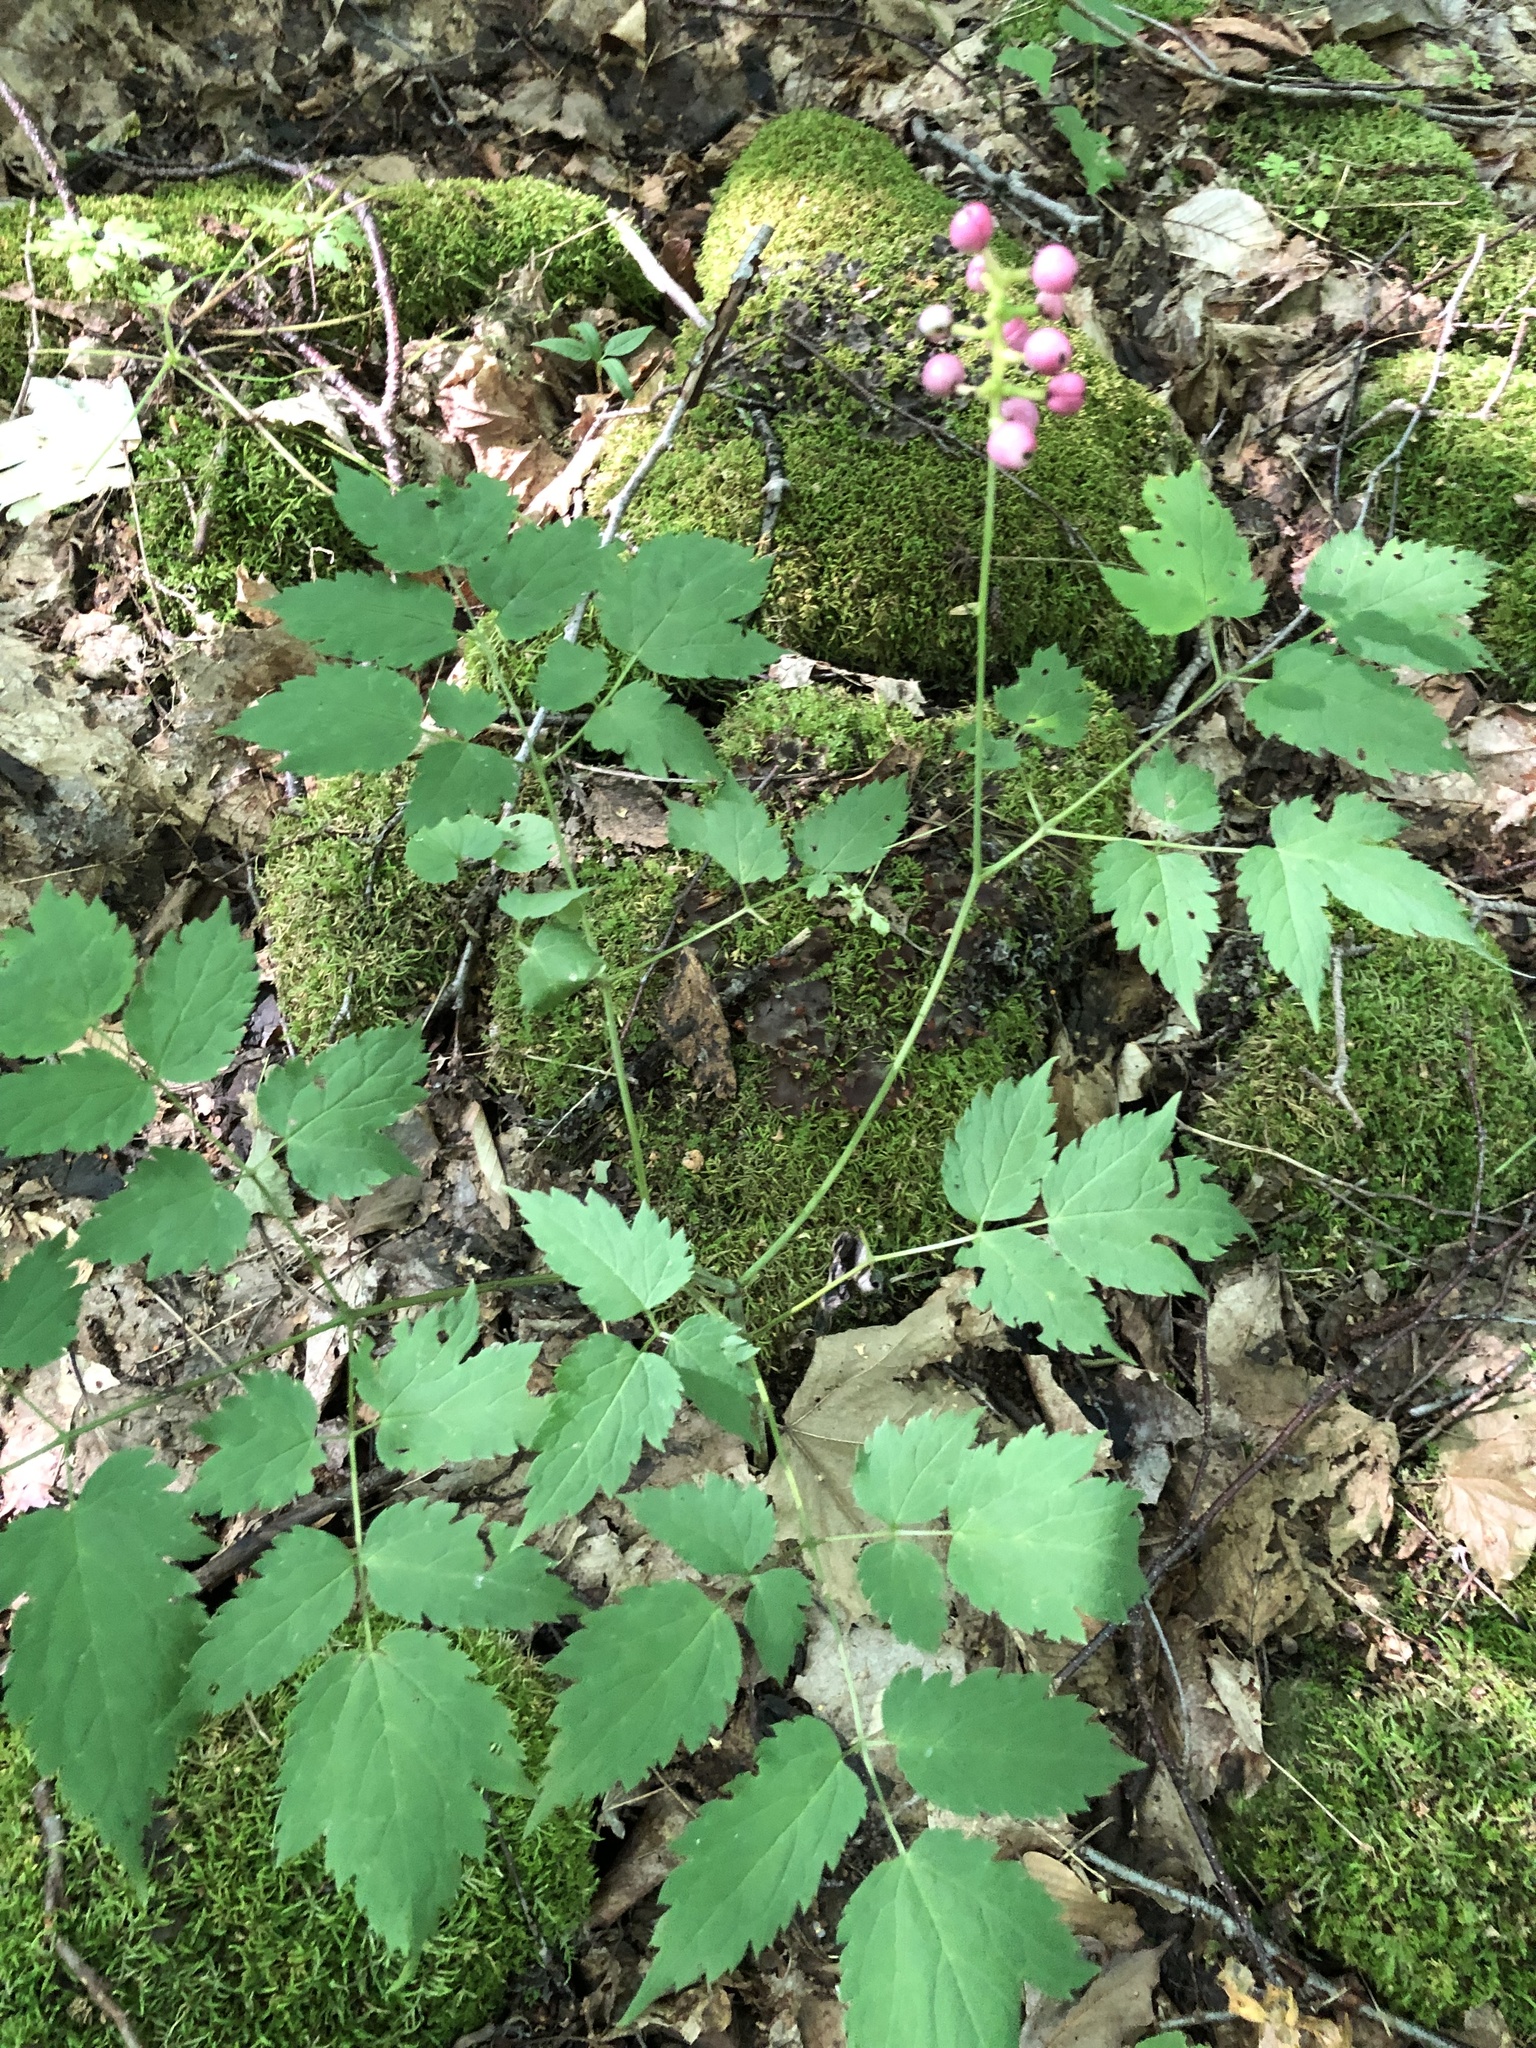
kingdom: Plantae
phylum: Tracheophyta
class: Magnoliopsida
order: Ranunculales
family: Ranunculaceae
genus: Actaea
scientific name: Actaea pachypoda
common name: Doll's-eyes
